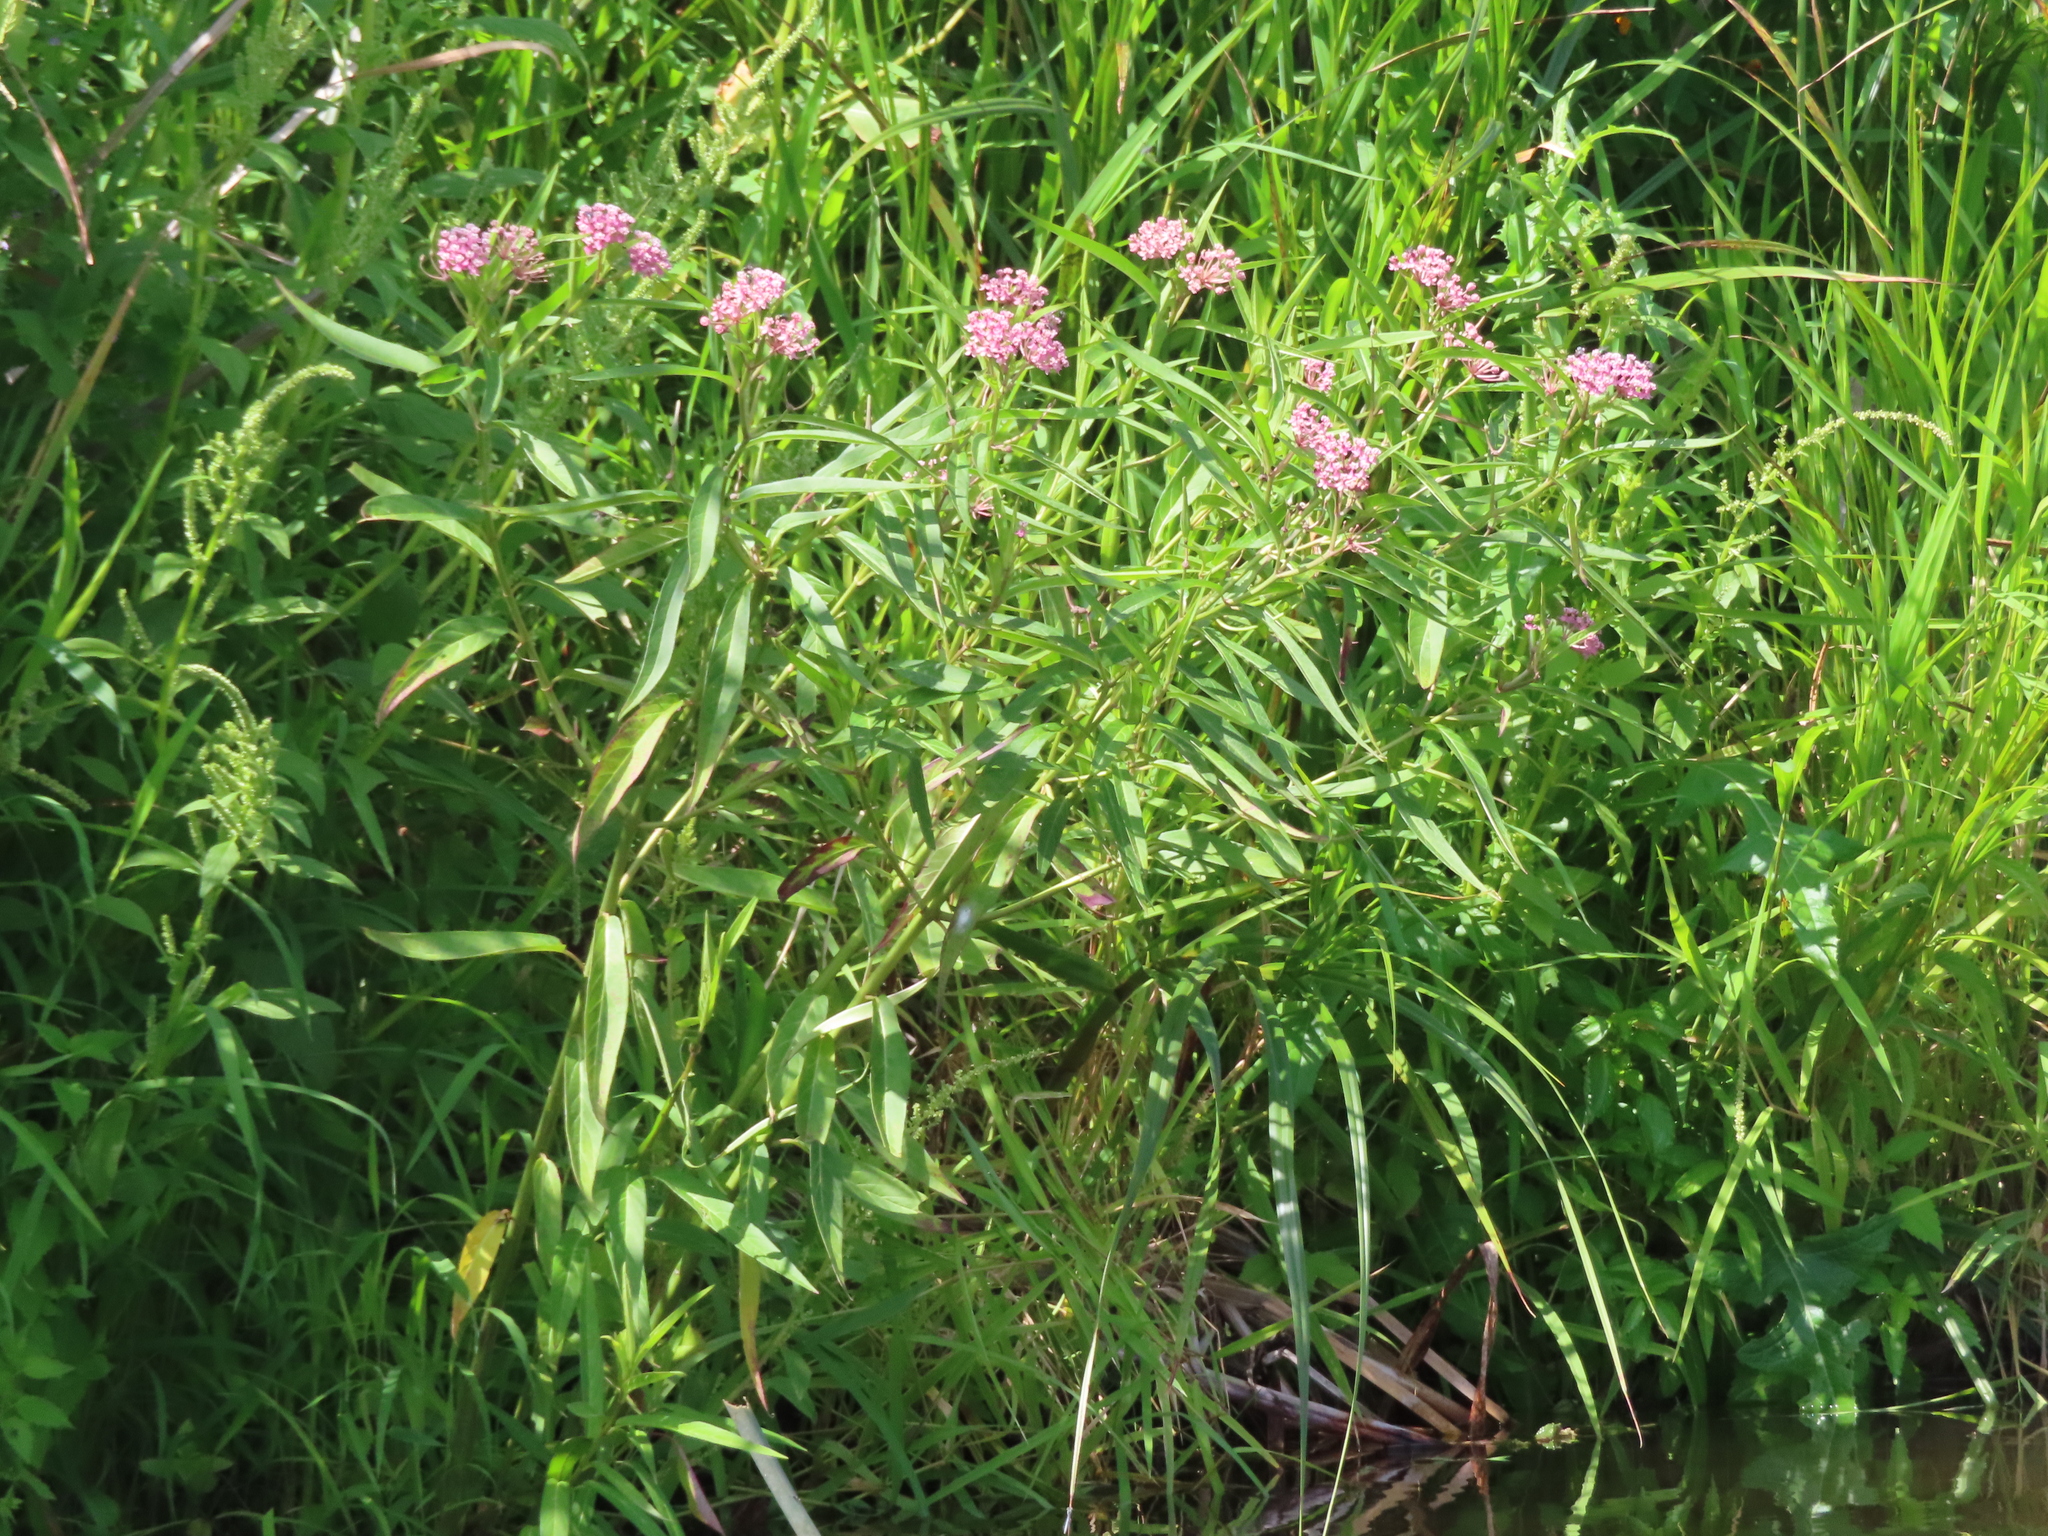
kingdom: Plantae
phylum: Tracheophyta
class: Magnoliopsida
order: Gentianales
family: Apocynaceae
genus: Asclepias
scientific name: Asclepias incarnata
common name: Swamp milkweed
